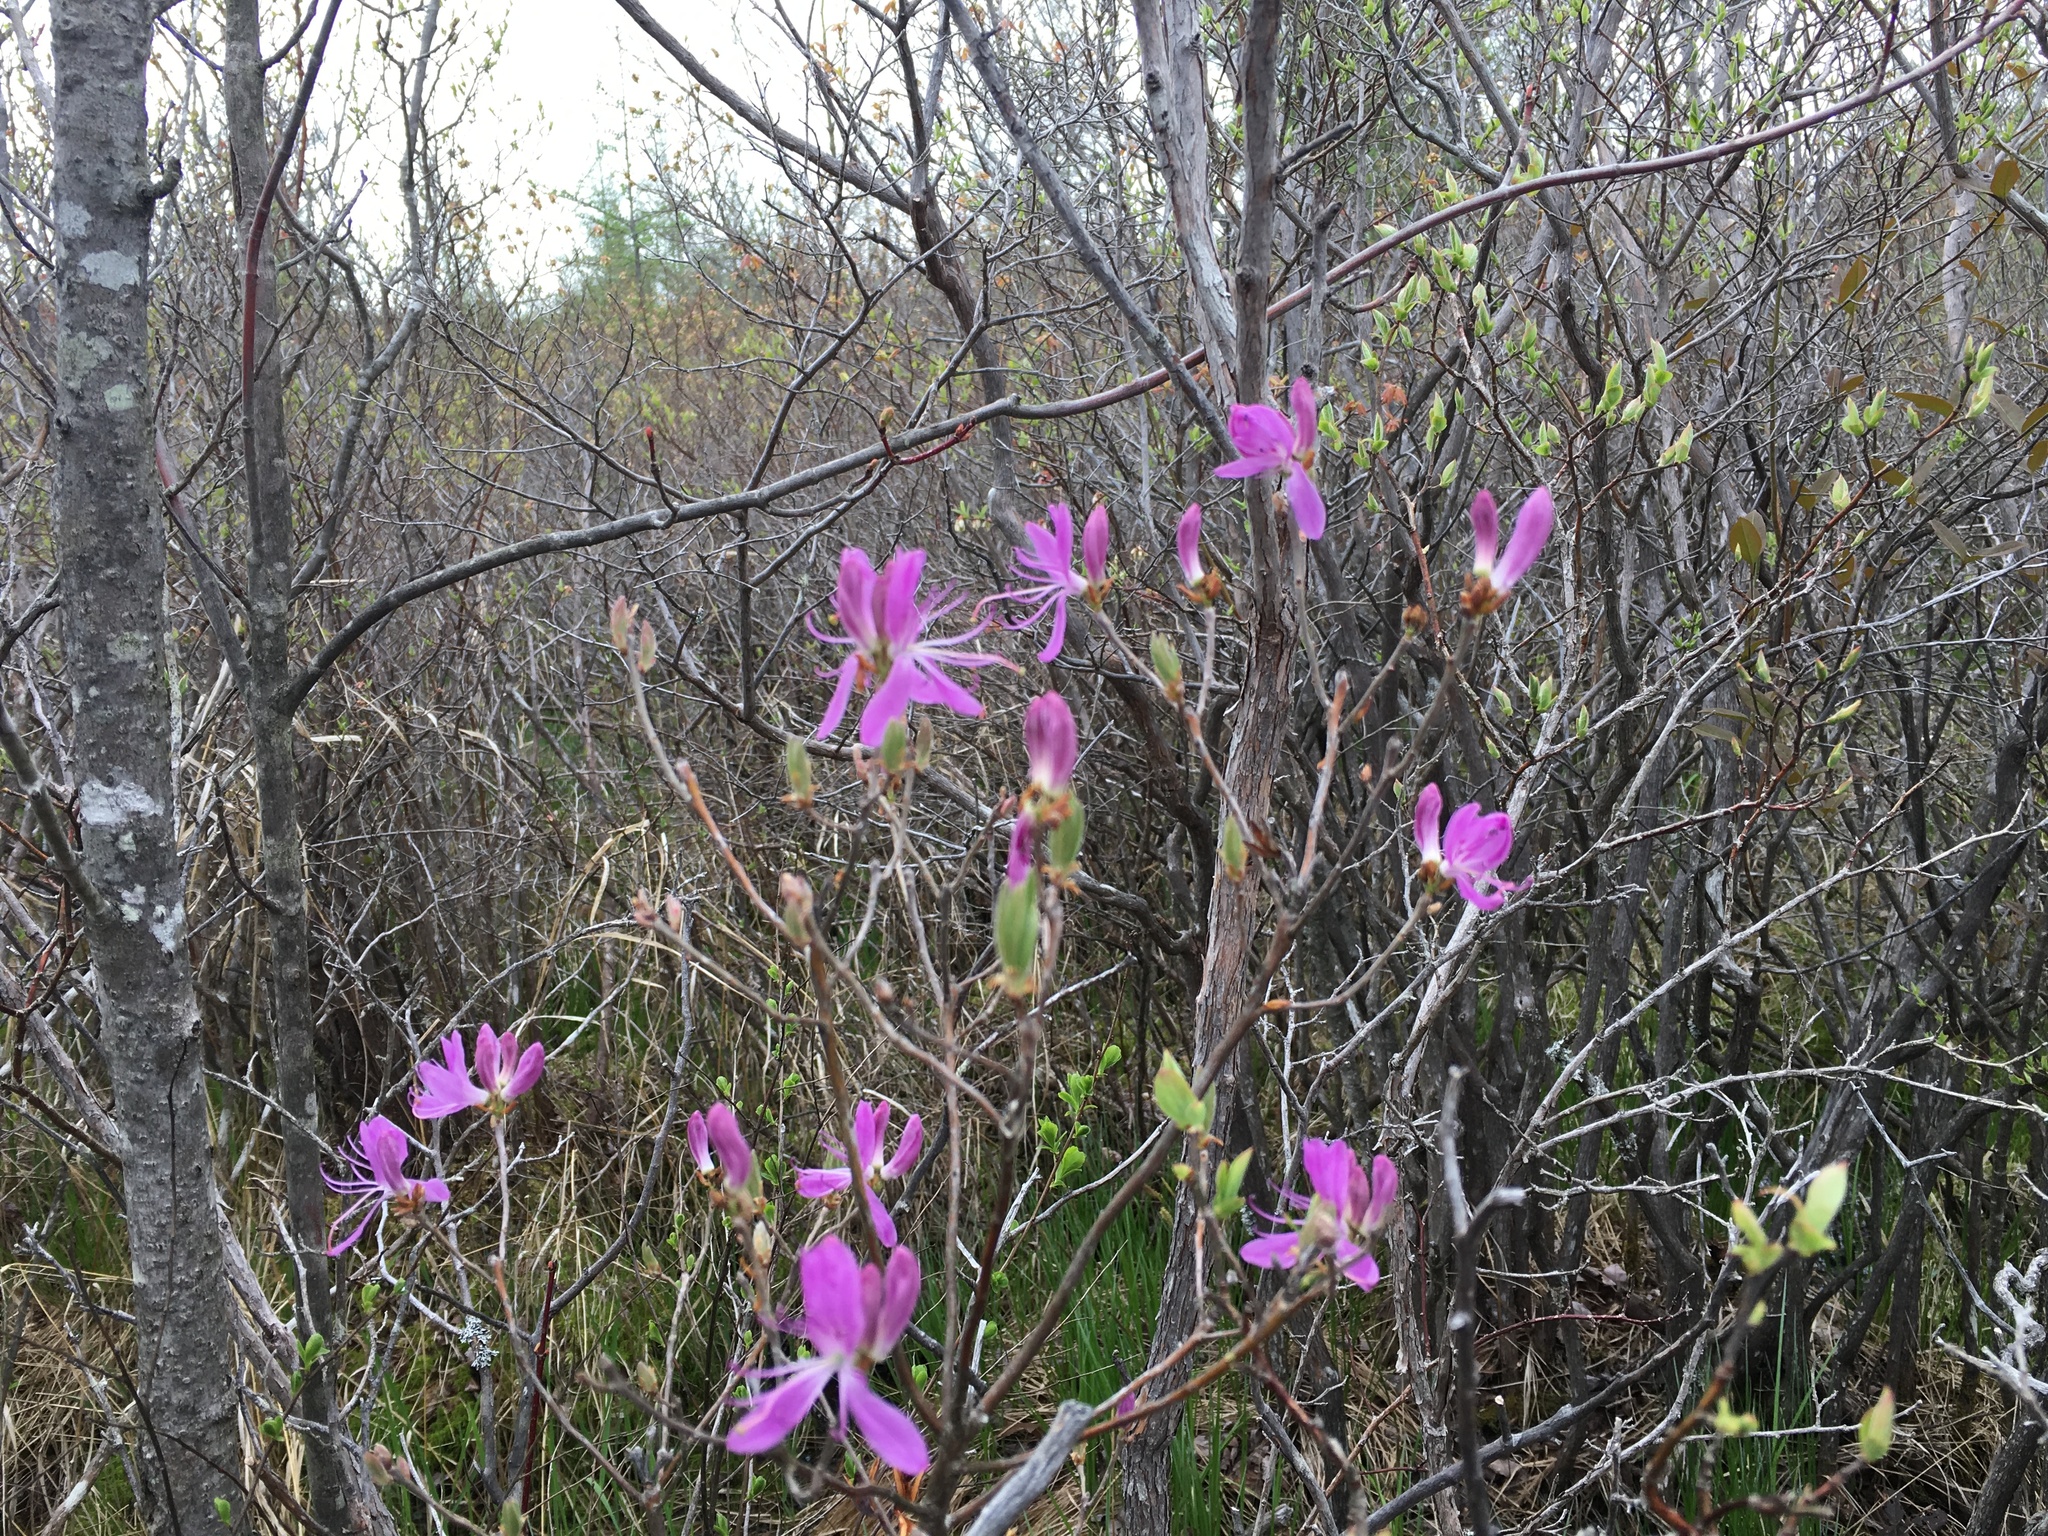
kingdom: Plantae
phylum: Tracheophyta
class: Magnoliopsida
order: Ericales
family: Ericaceae
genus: Rhododendron
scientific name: Rhododendron canadense
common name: Rhodora
